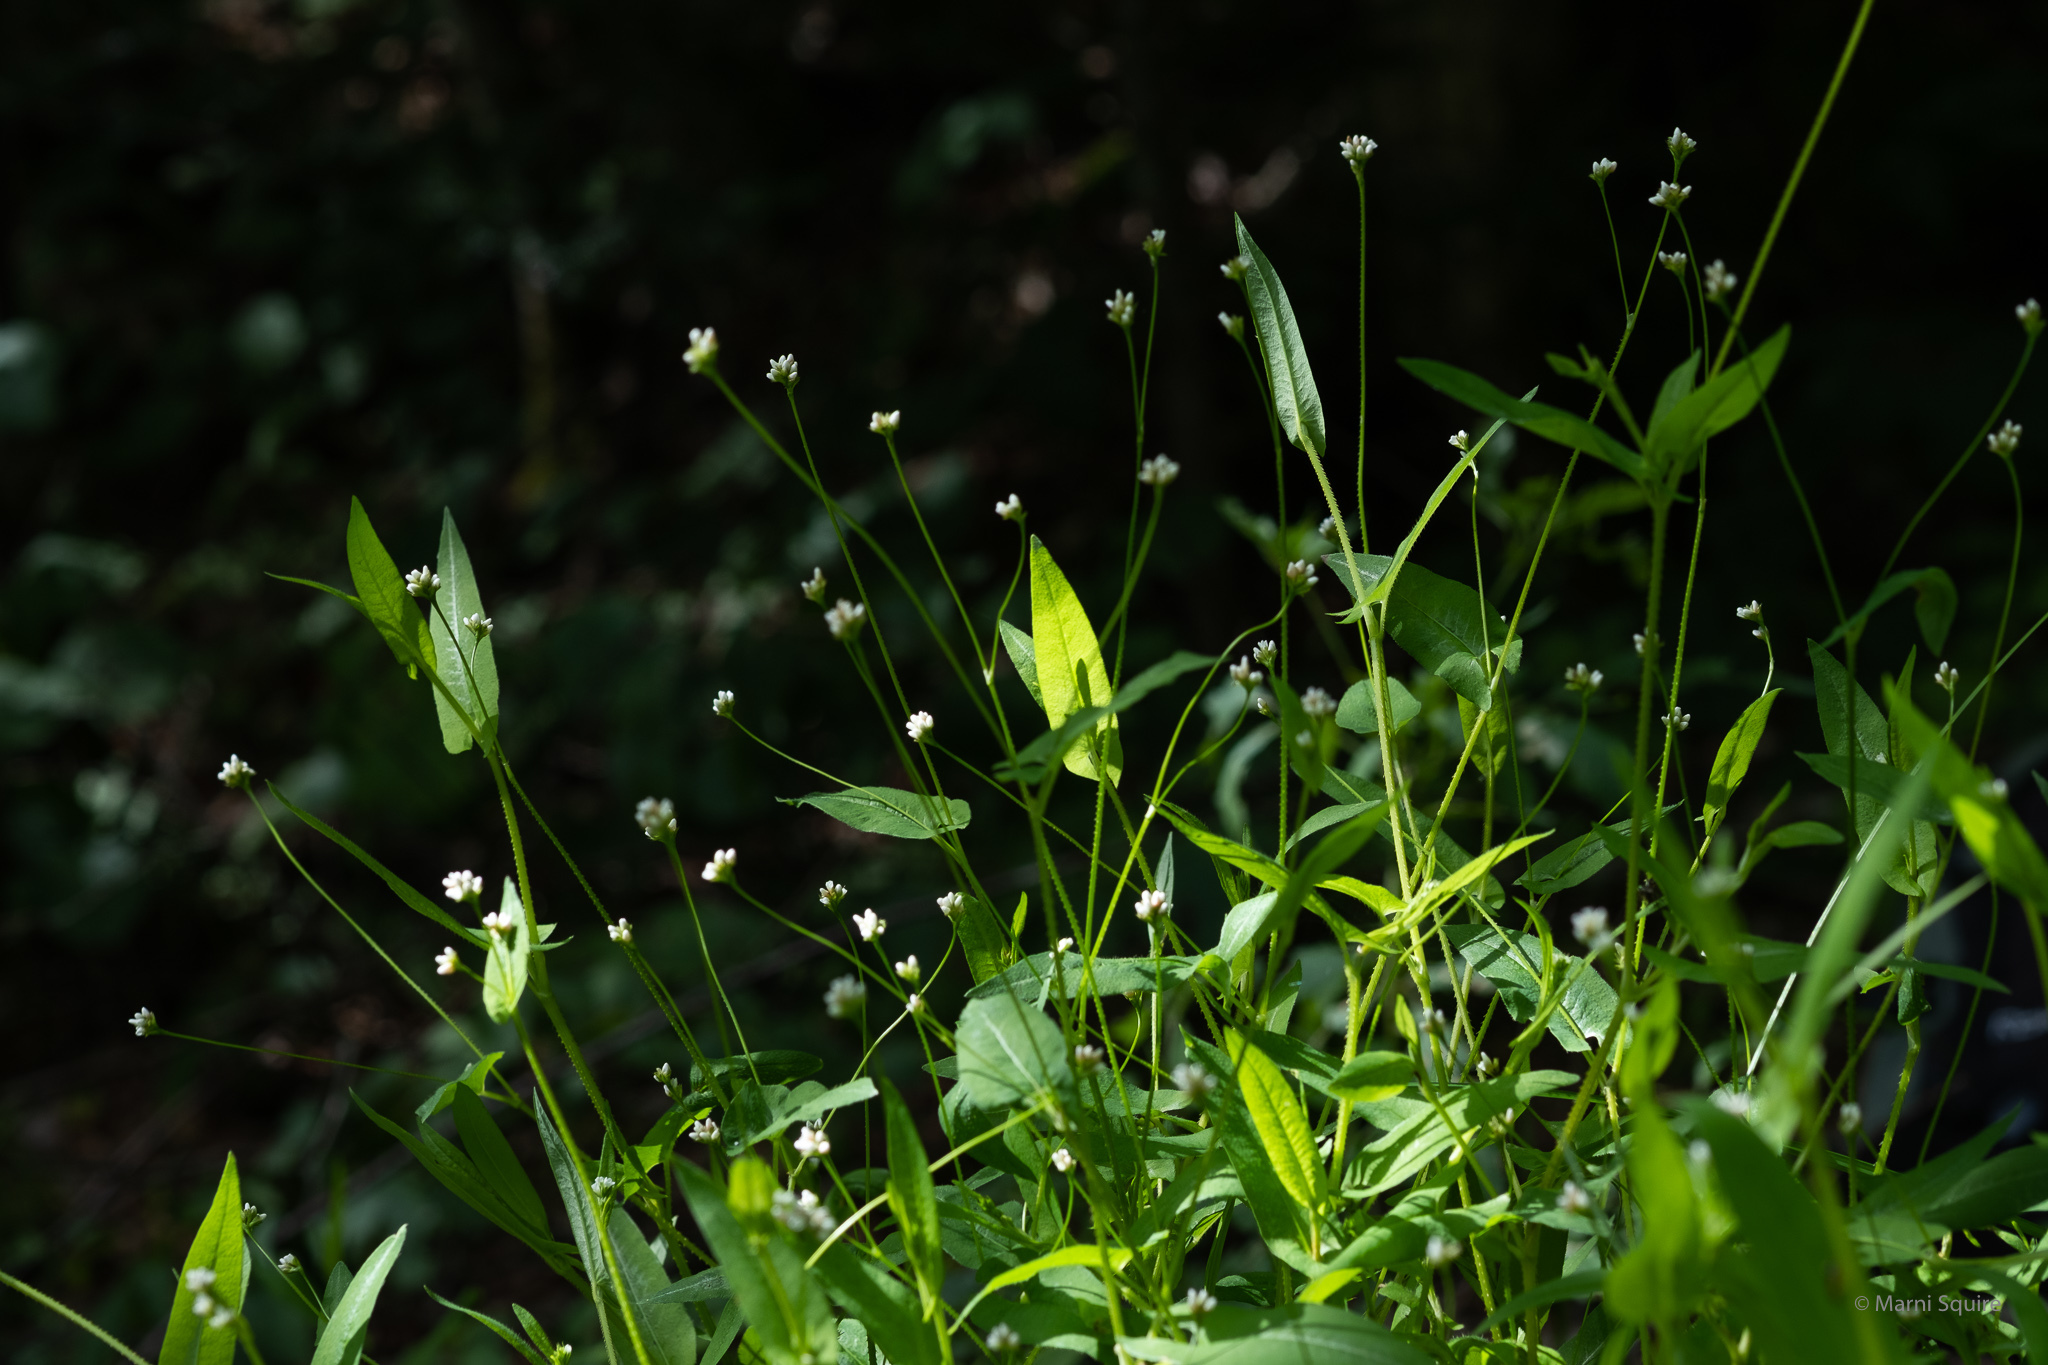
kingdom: Plantae
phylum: Tracheophyta
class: Magnoliopsida
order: Caryophyllales
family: Polygonaceae
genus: Persicaria
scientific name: Persicaria sagittata
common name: American tearthumb
